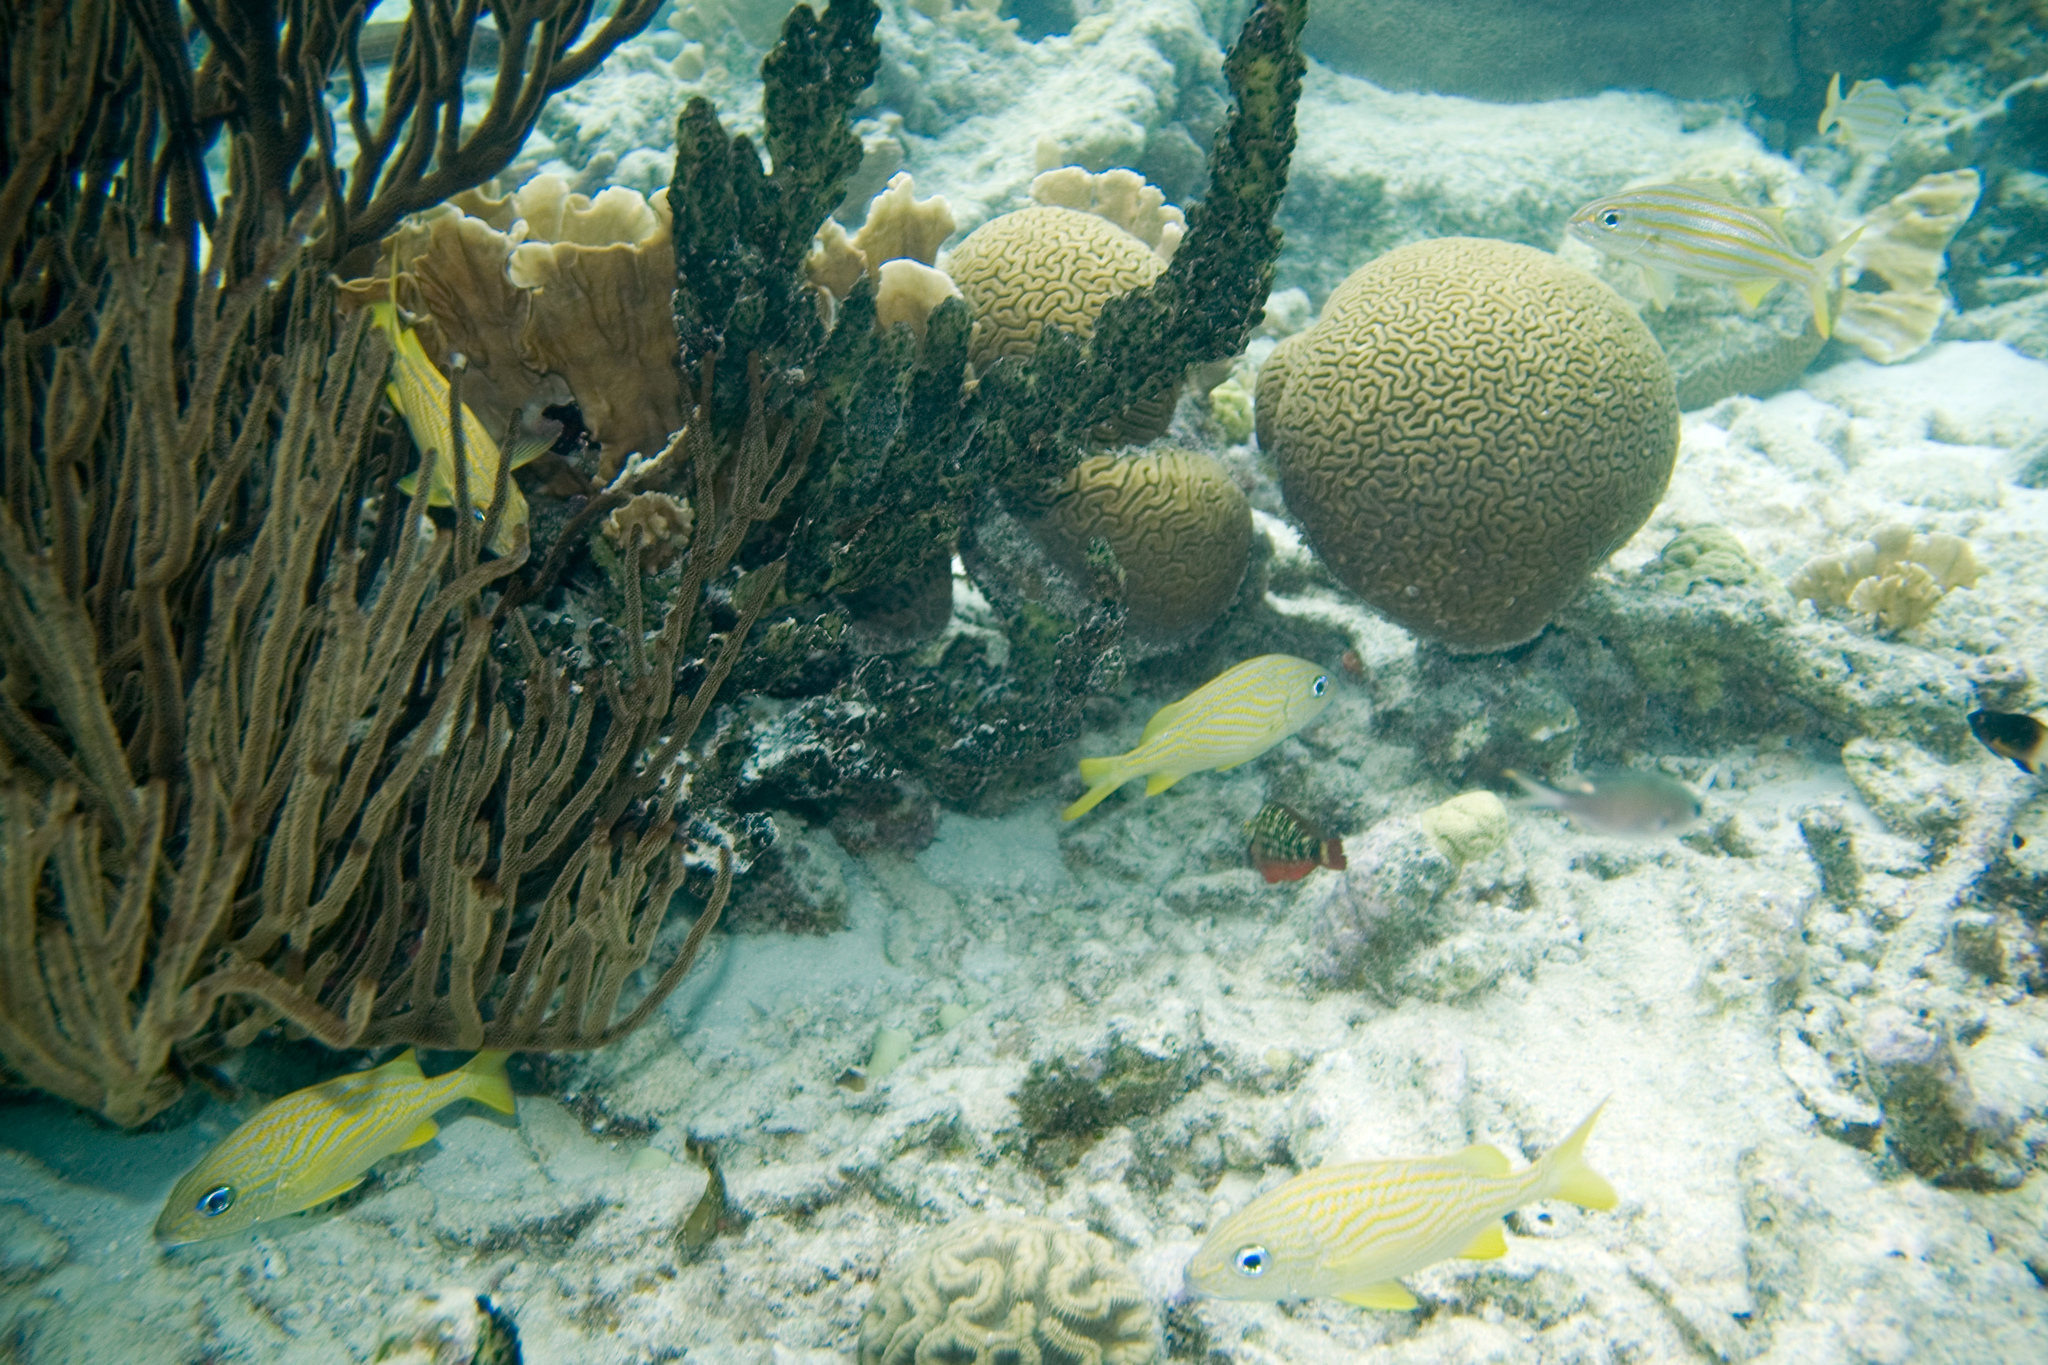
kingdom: Animalia
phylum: Cnidaria
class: Anthozoa
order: Scleractinia
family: Faviidae
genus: Diploria
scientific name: Diploria labyrinthiformis
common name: Grooved brain coral
